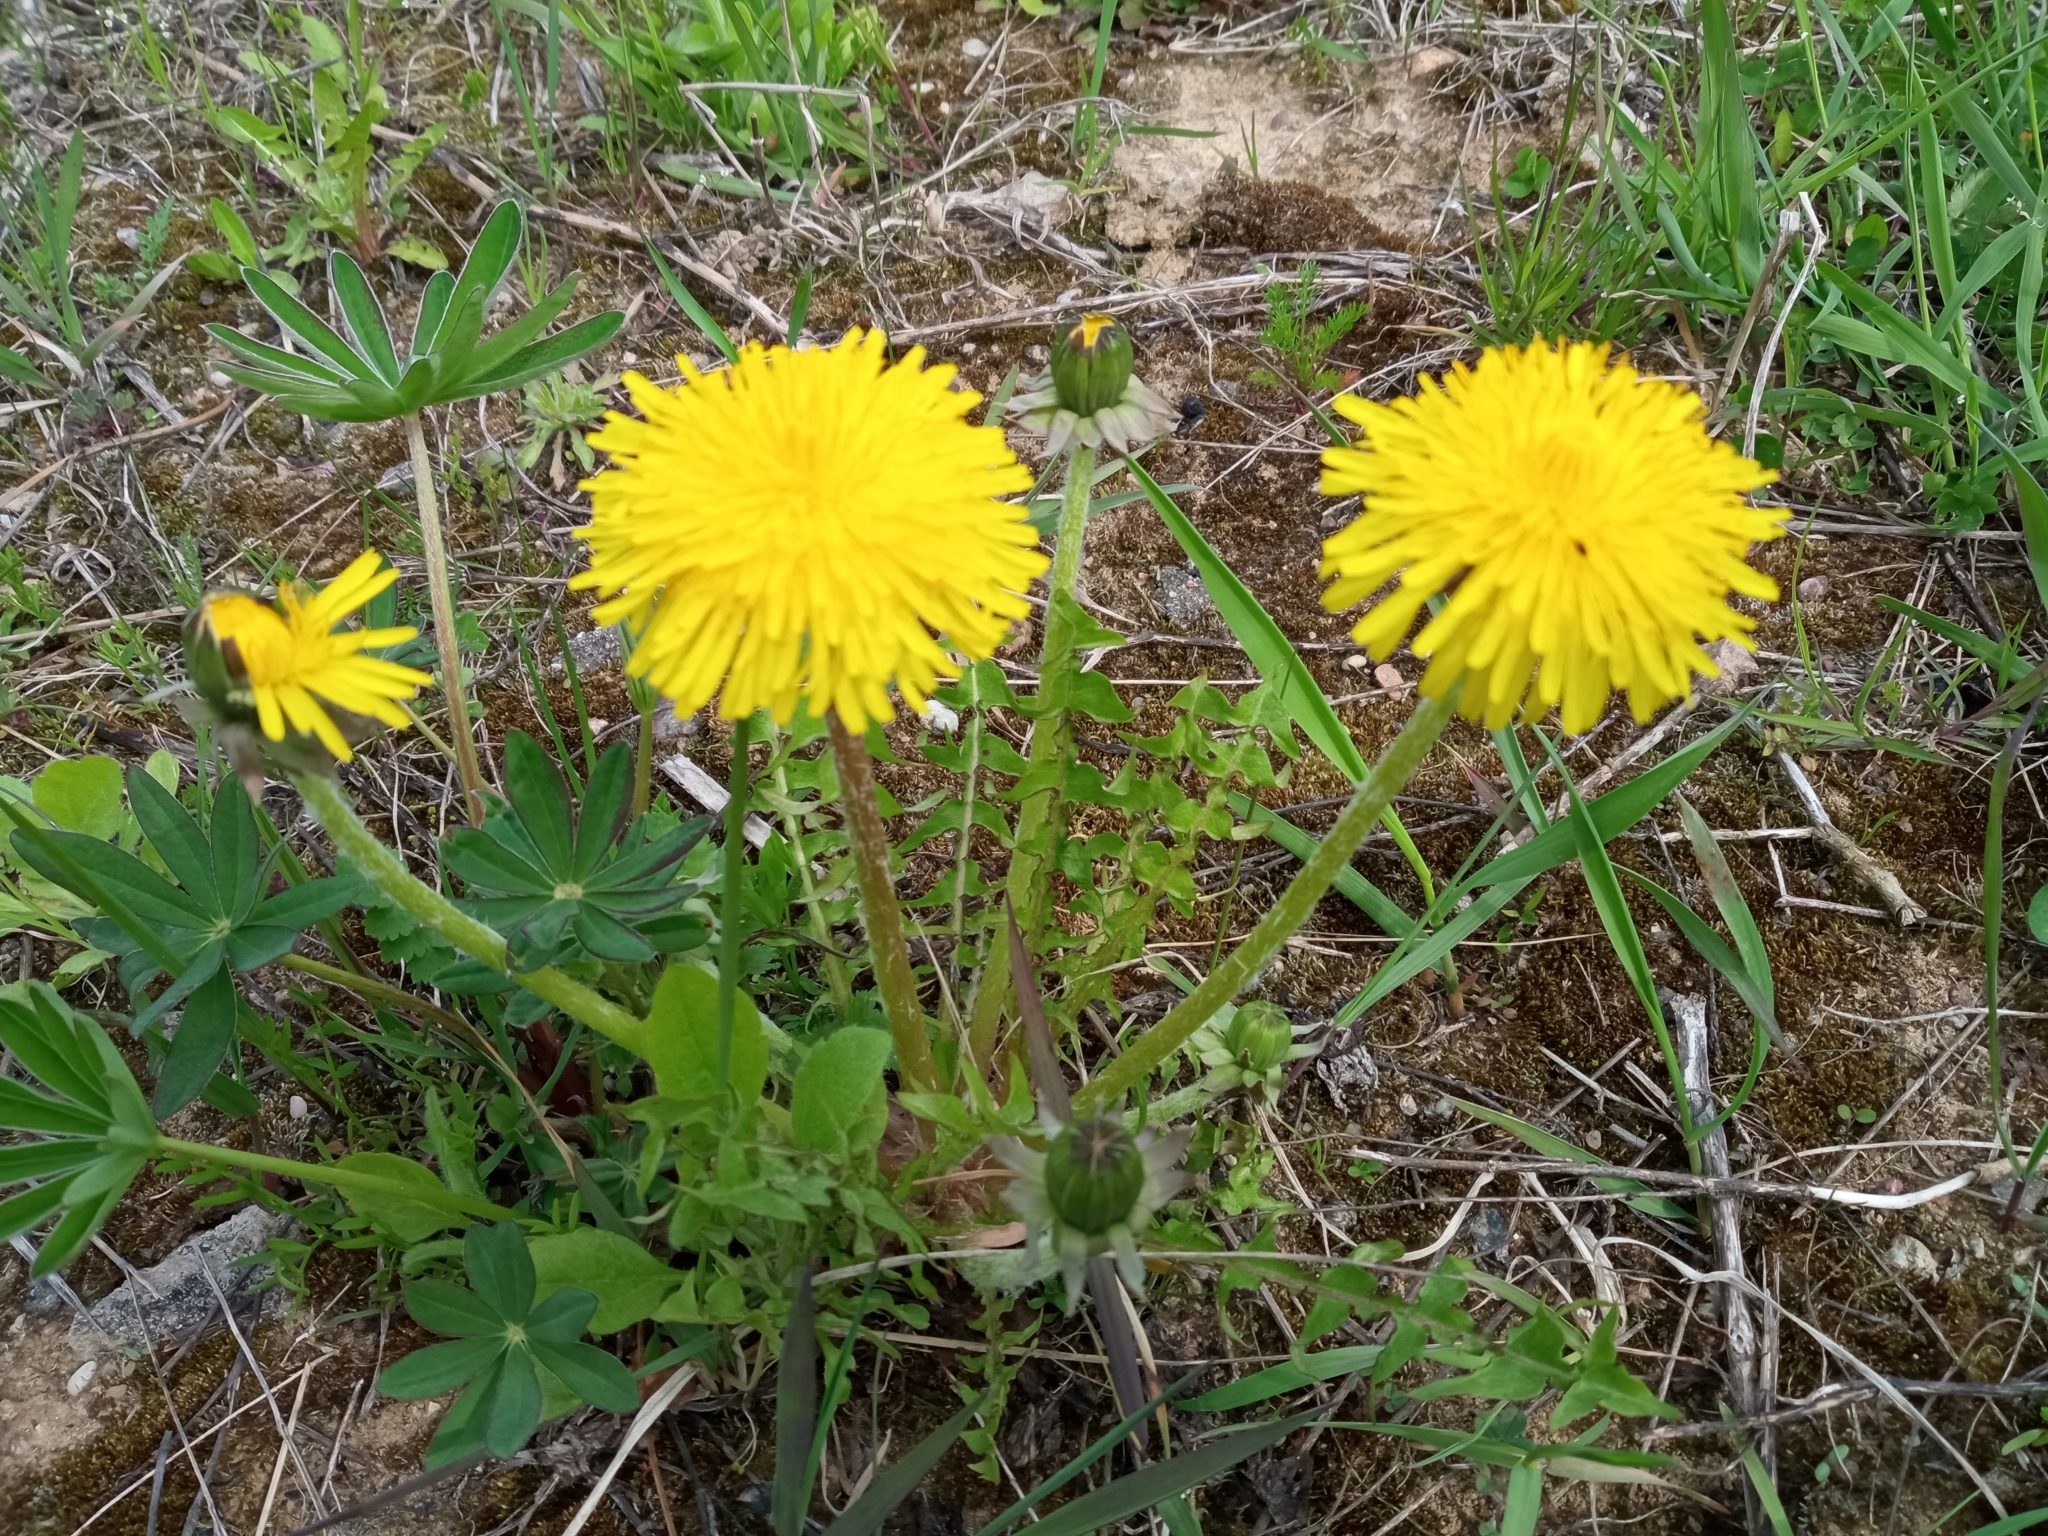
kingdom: Plantae
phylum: Tracheophyta
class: Magnoliopsida
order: Asterales
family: Asteraceae
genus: Taraxacum
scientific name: Taraxacum officinale
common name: Common dandelion
